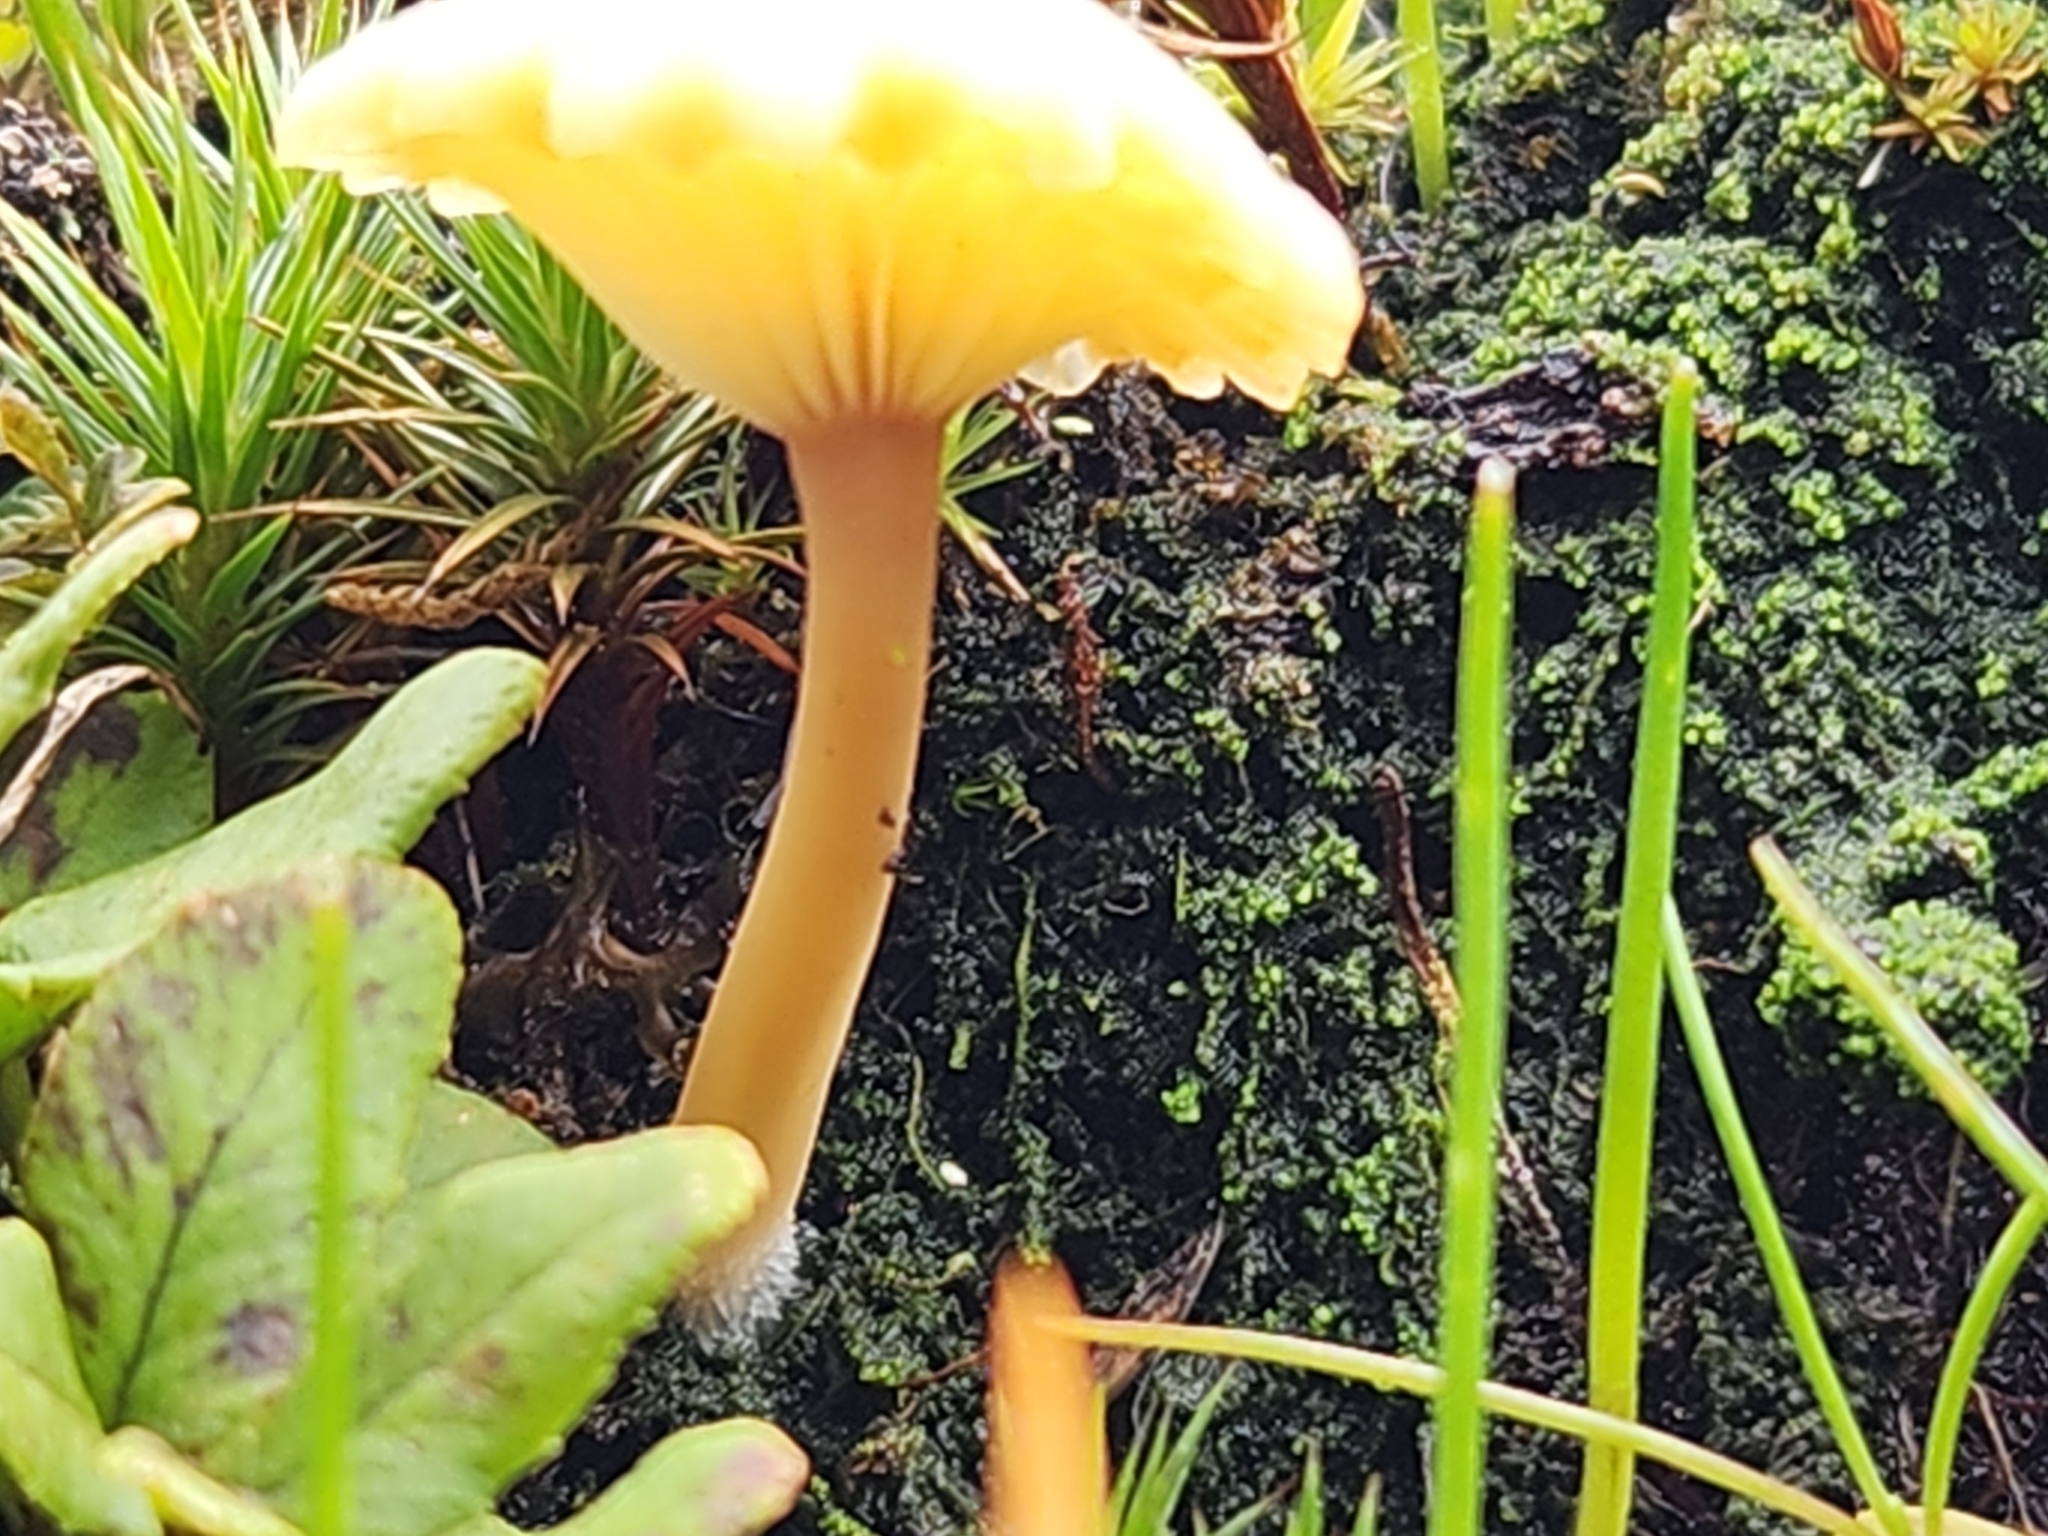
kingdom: Fungi
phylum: Basidiomycota
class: Agaricomycetes
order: Agaricales
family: Hygrophoraceae
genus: Lichenomphalia
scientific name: Lichenomphalia
